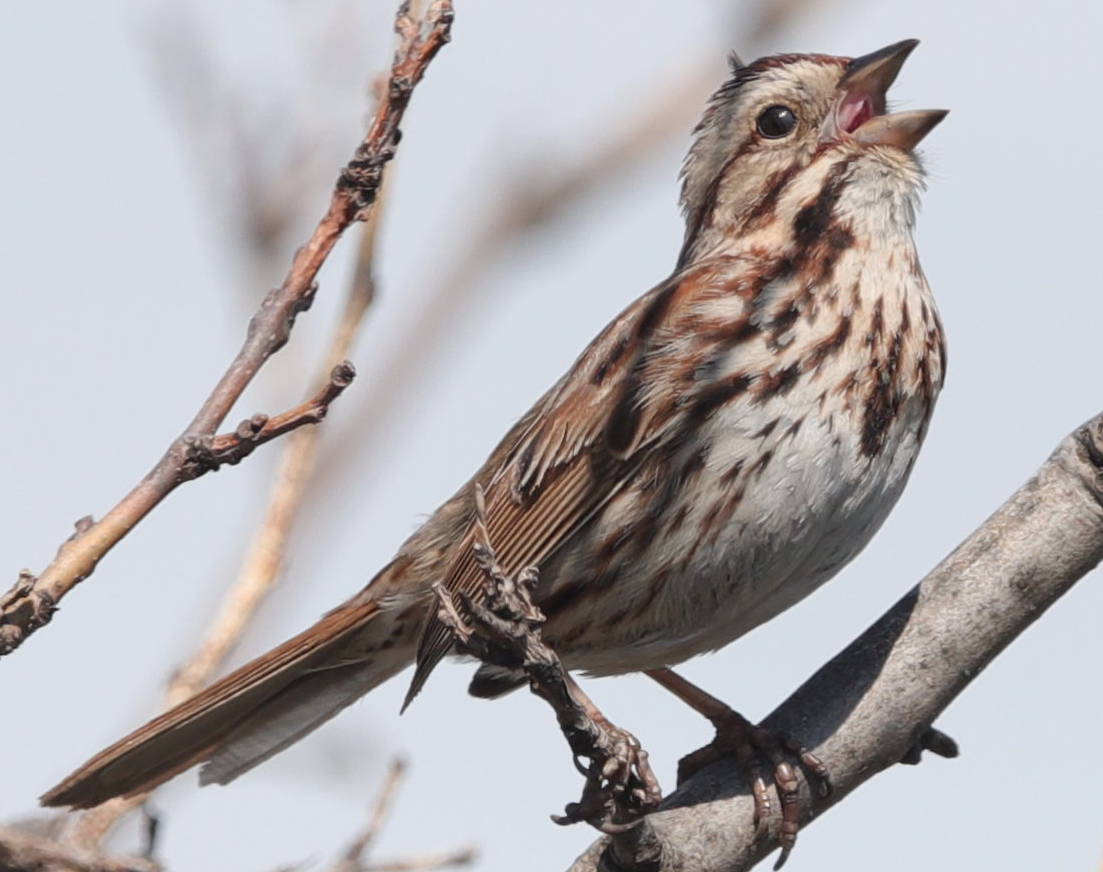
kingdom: Animalia
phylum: Chordata
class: Aves
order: Passeriformes
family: Passerellidae
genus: Melospiza
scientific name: Melospiza melodia
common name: Song sparrow
